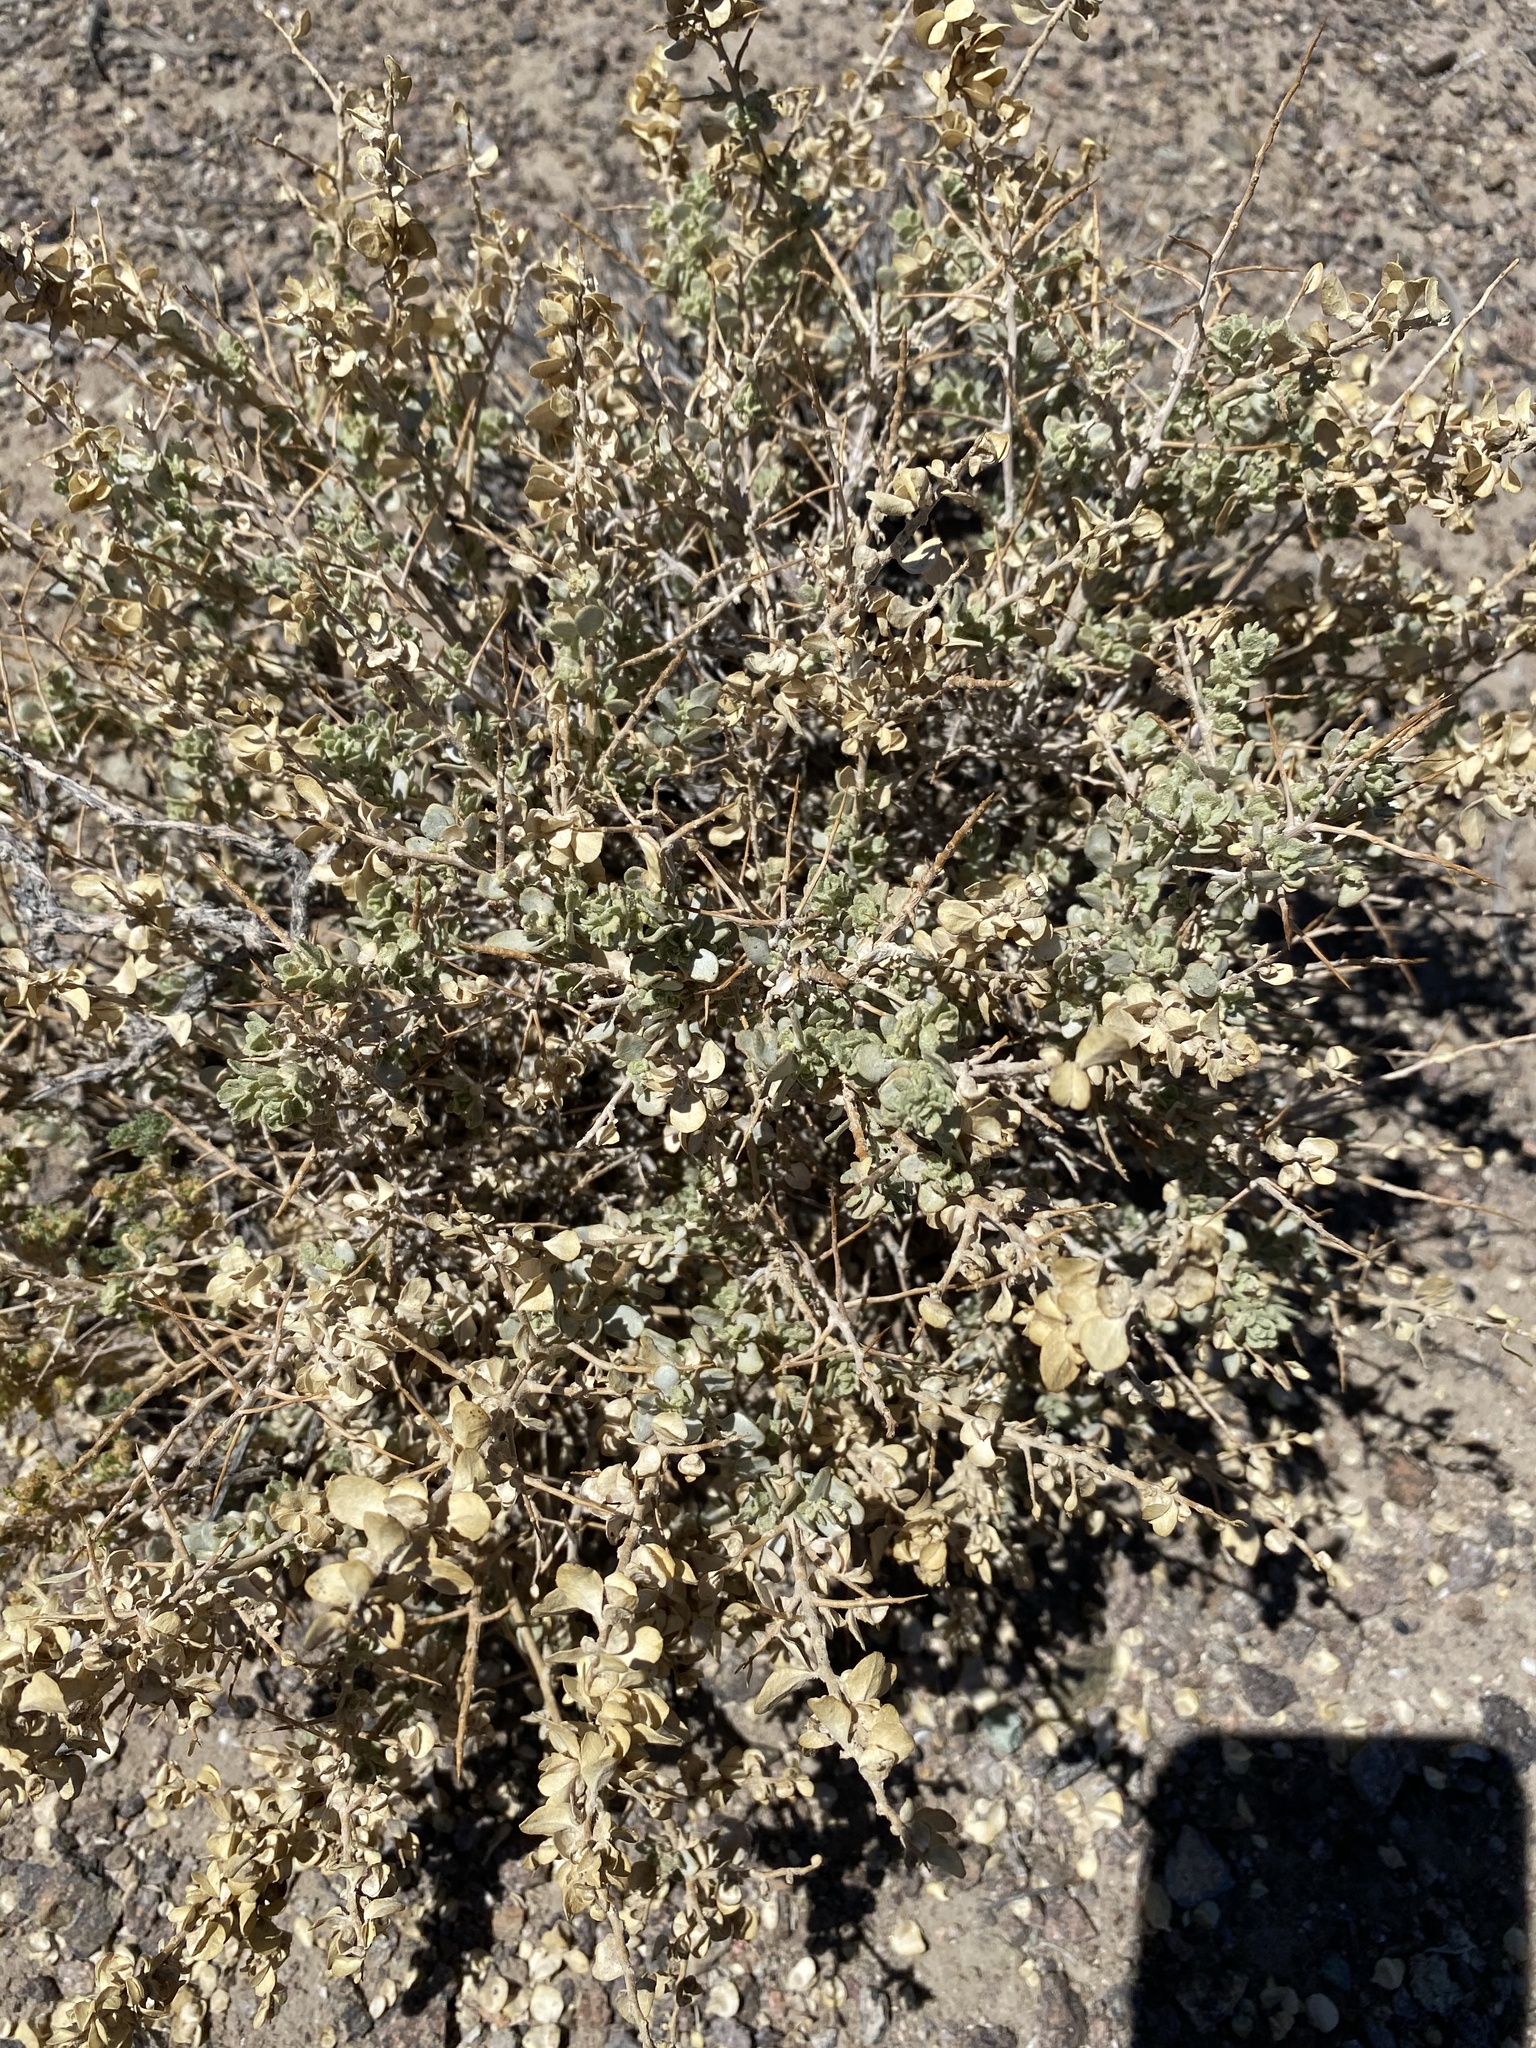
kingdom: Plantae
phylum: Tracheophyta
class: Magnoliopsida
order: Caryophyllales
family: Amaranthaceae
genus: Atriplex
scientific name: Atriplex confertifolia
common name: Shadscale
